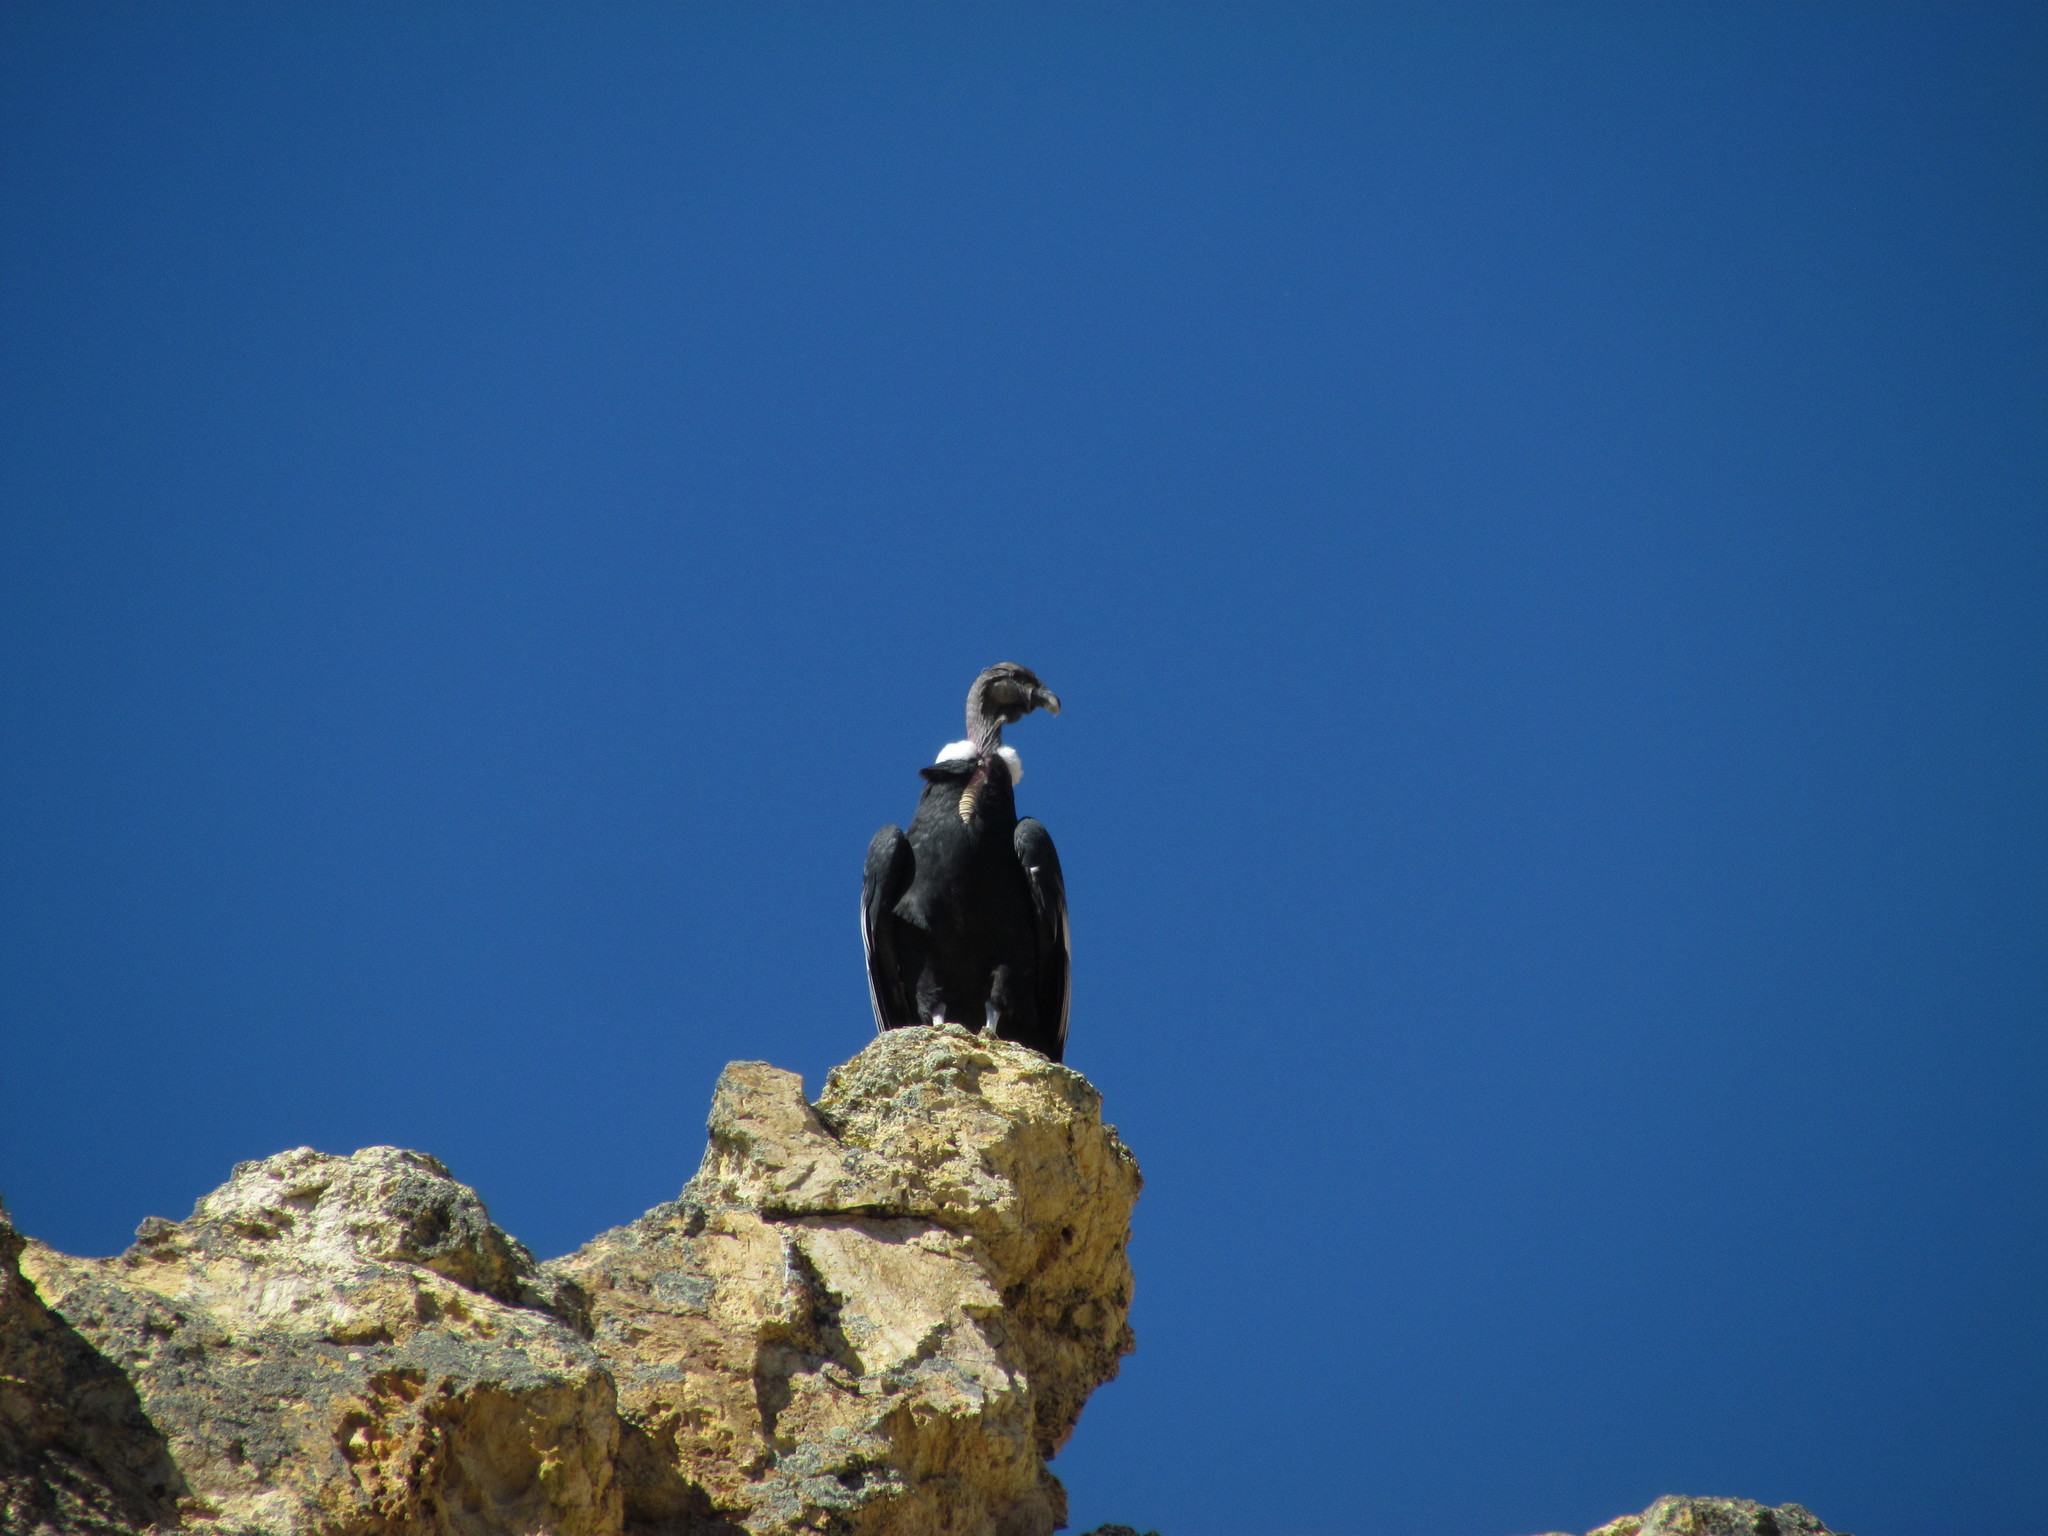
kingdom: Animalia
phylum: Chordata
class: Aves
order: Accipitriformes
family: Cathartidae
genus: Vultur
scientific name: Vultur gryphus
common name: Andean condor
